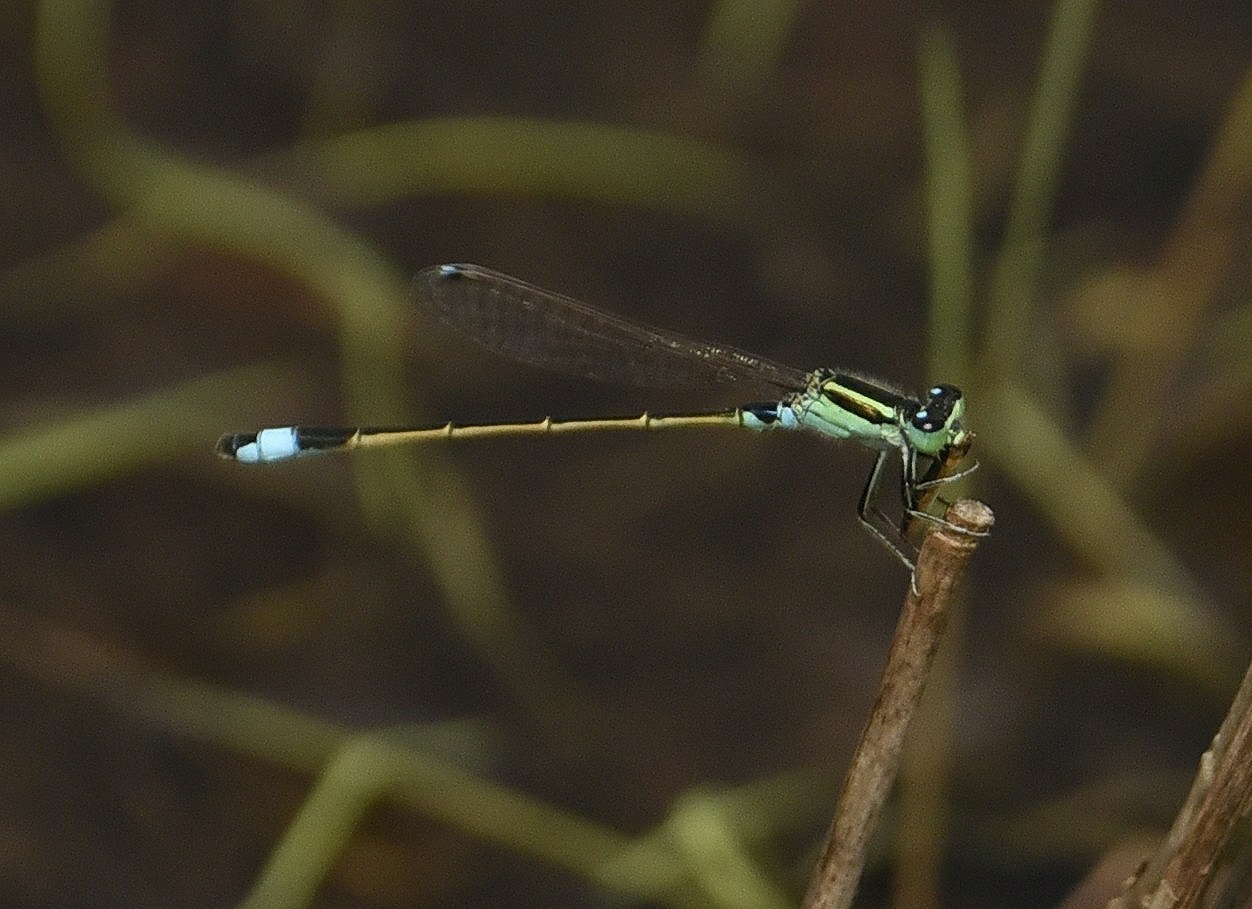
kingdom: Animalia
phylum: Arthropoda
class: Insecta
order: Odonata
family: Coenagrionidae
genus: Ischnura
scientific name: Ischnura senegalensis
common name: Tropical bluetail
